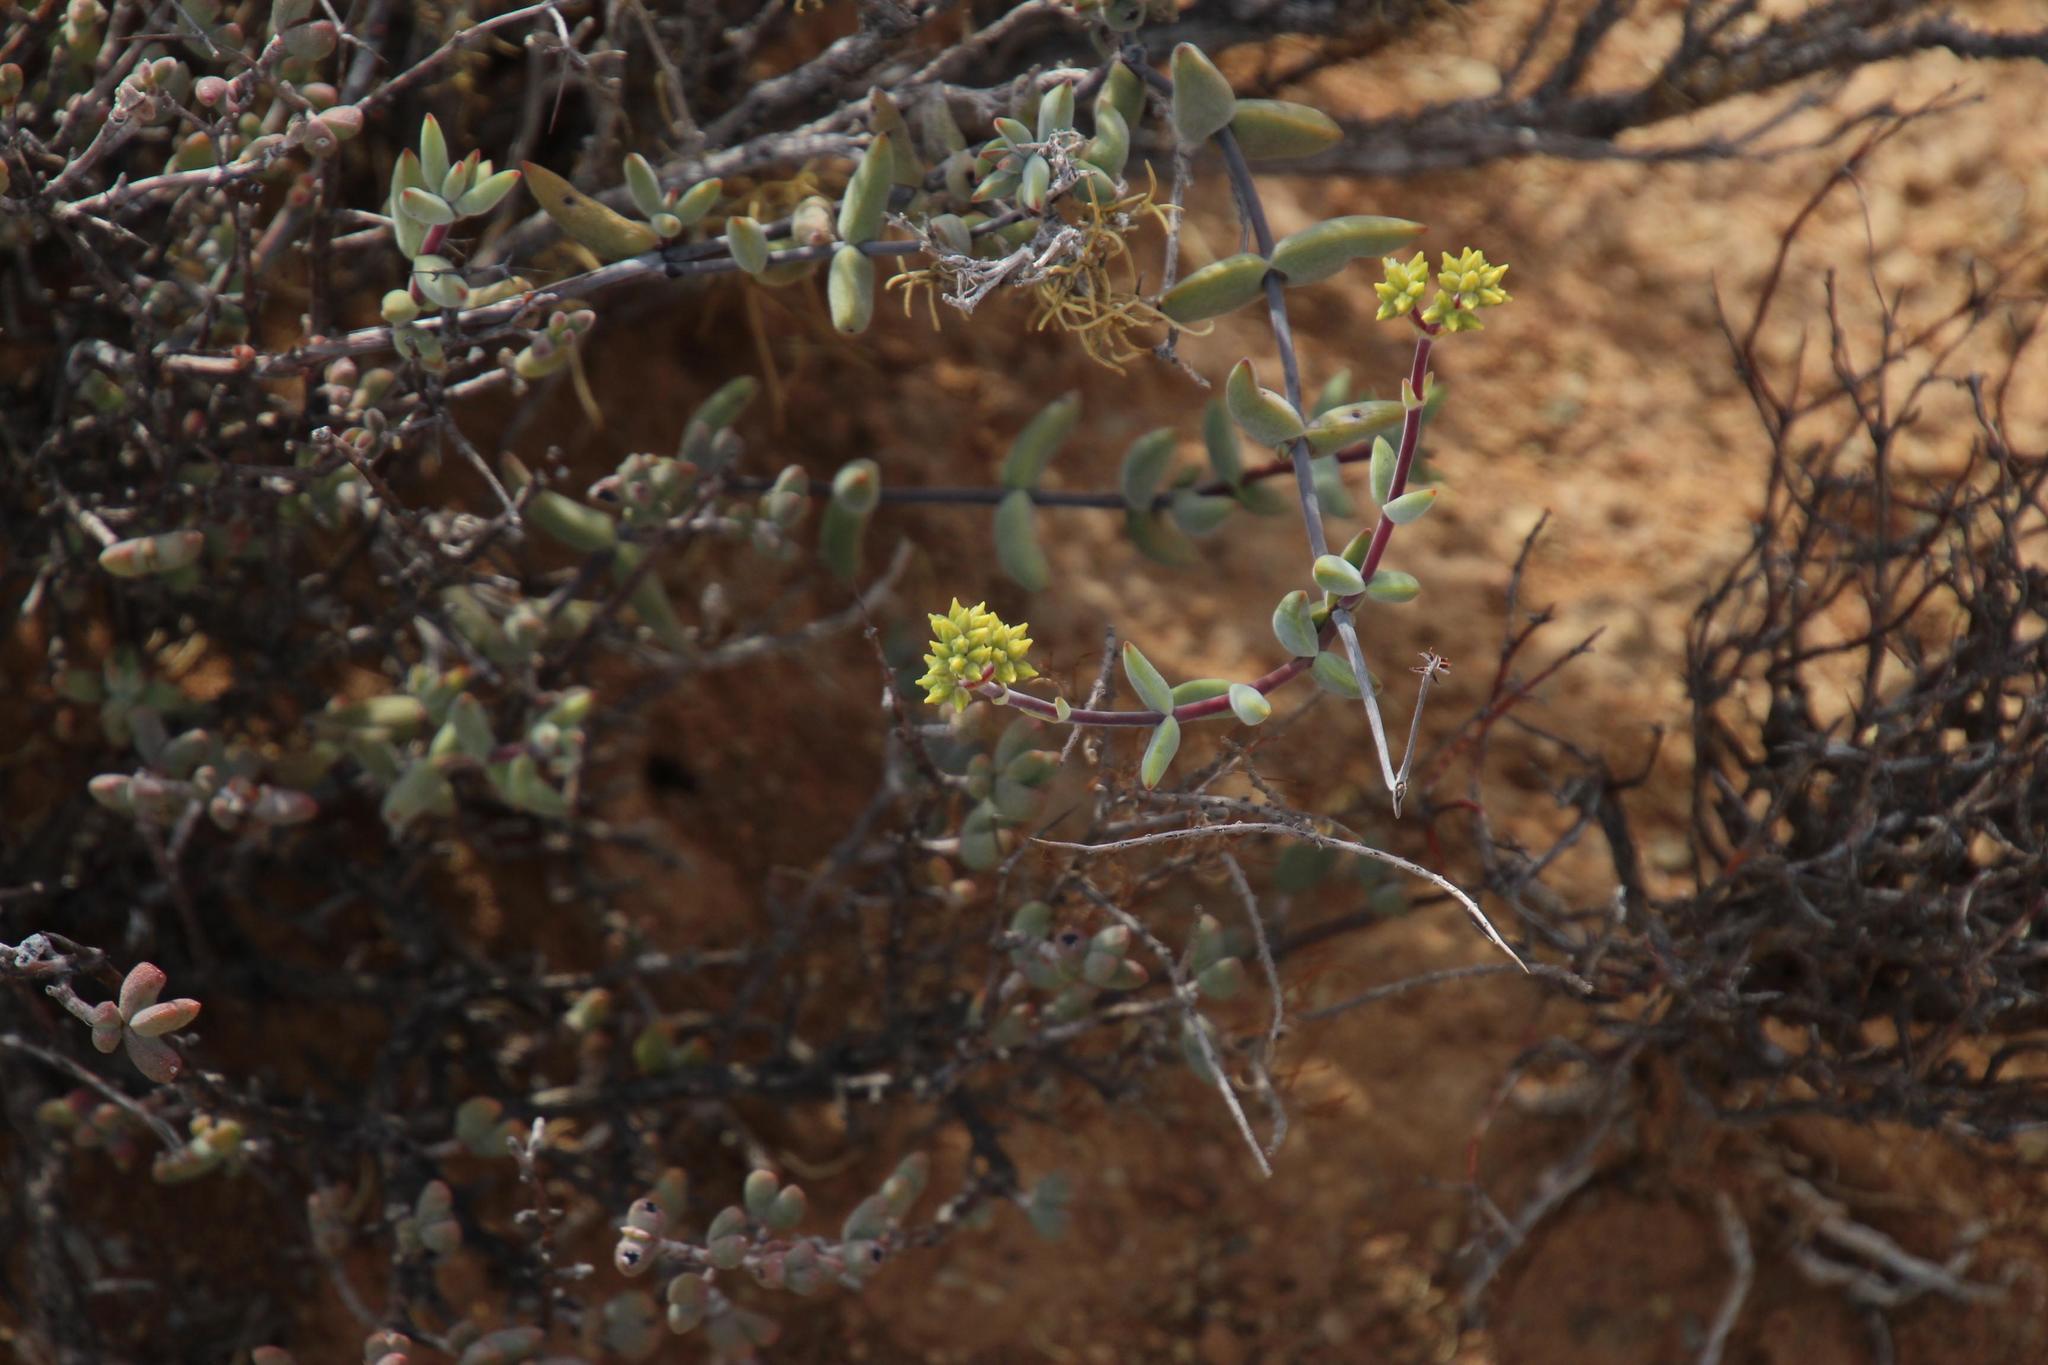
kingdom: Plantae
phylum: Tracheophyta
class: Magnoliopsida
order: Saxifragales
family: Crassulaceae
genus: Crassula
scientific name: Crassula subaphylla
